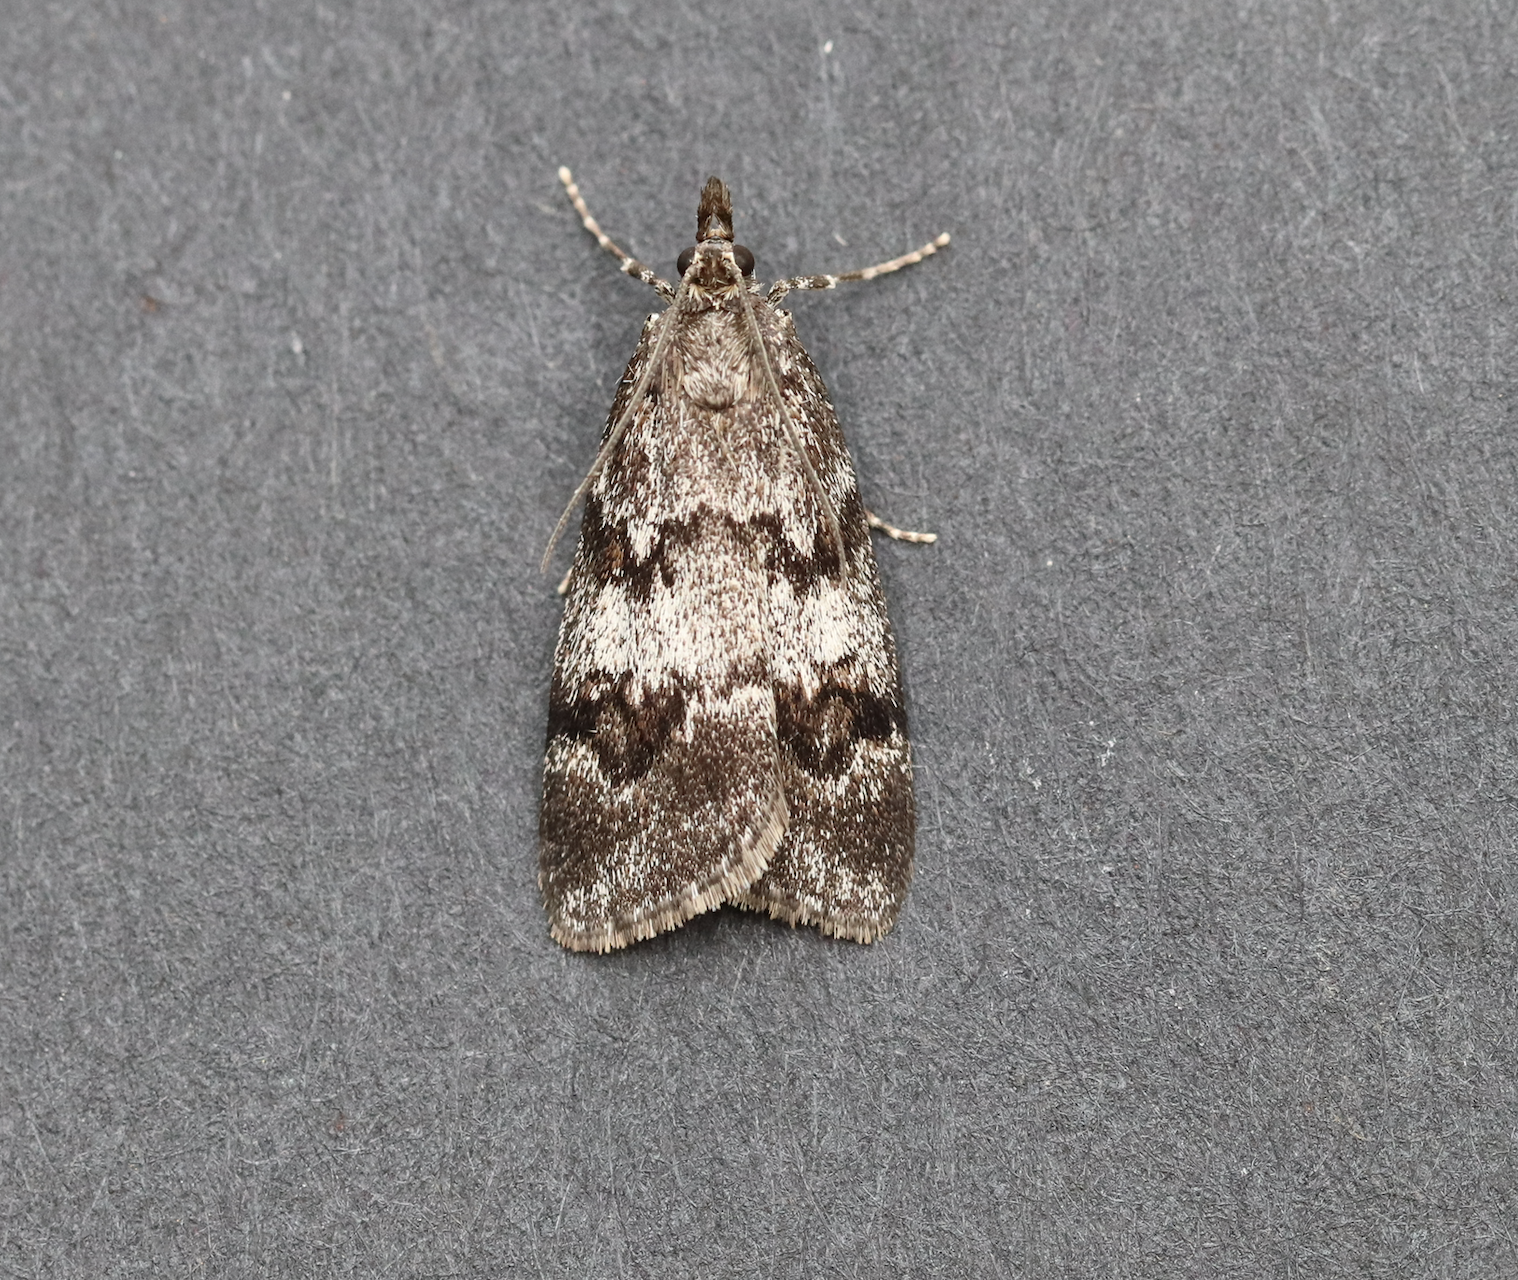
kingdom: Animalia
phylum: Arthropoda
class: Insecta
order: Lepidoptera
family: Crambidae
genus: Gesneria
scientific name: Gesneria centuriella
